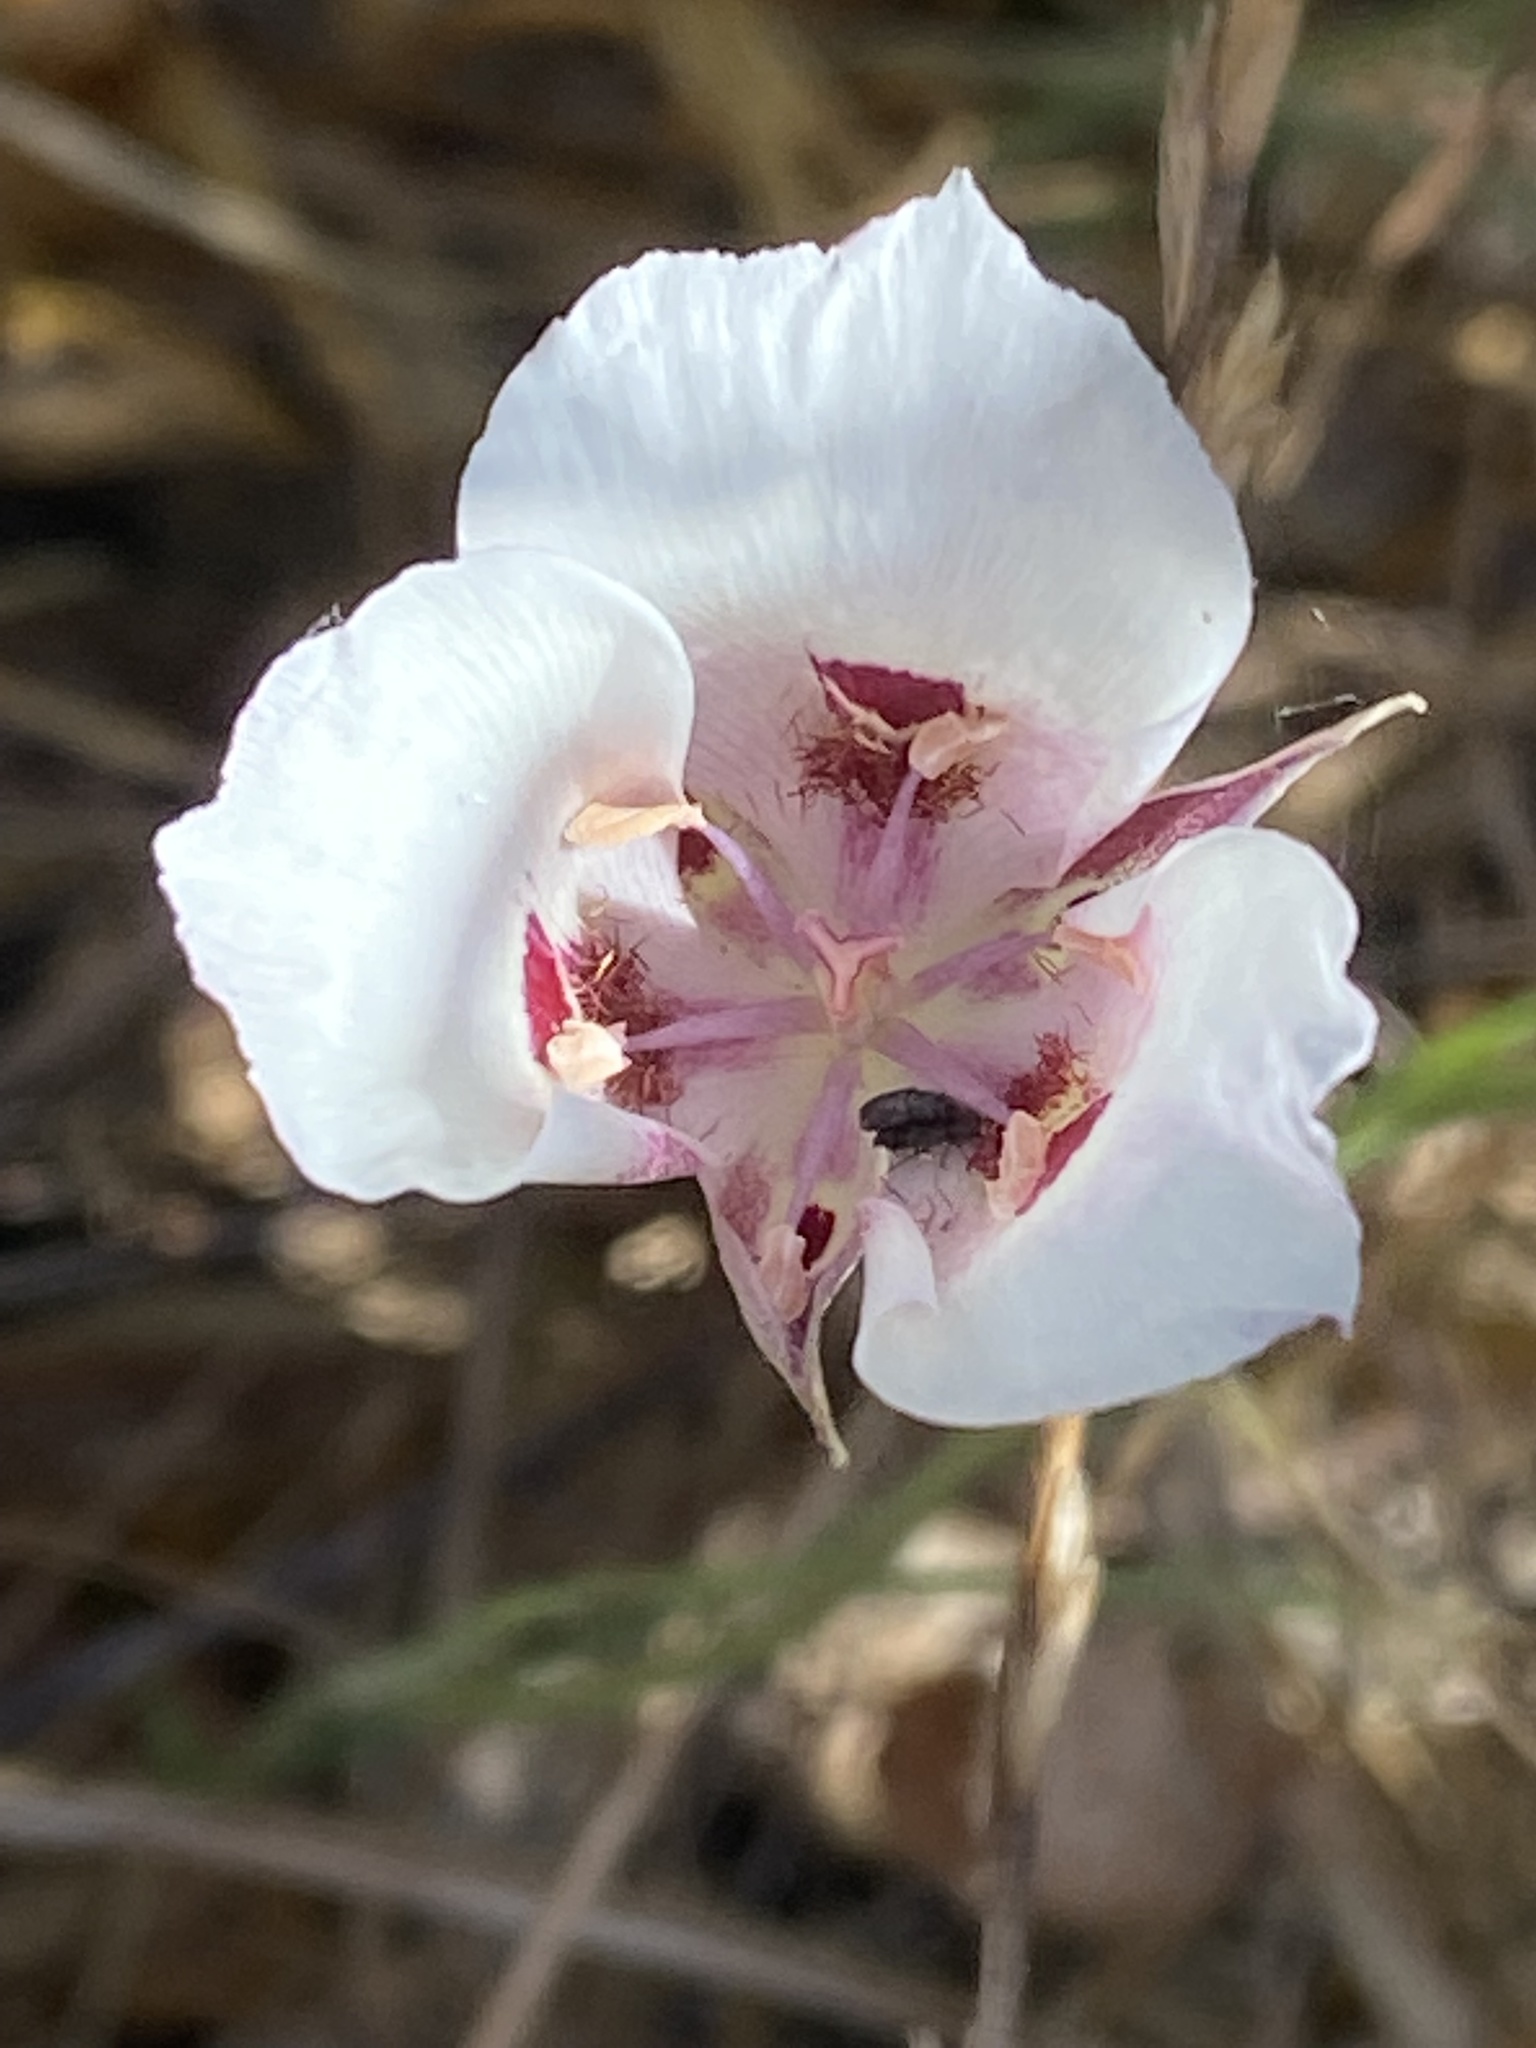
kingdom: Plantae
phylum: Tracheophyta
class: Liliopsida
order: Liliales
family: Liliaceae
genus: Calochortus
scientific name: Calochortus argillosus
